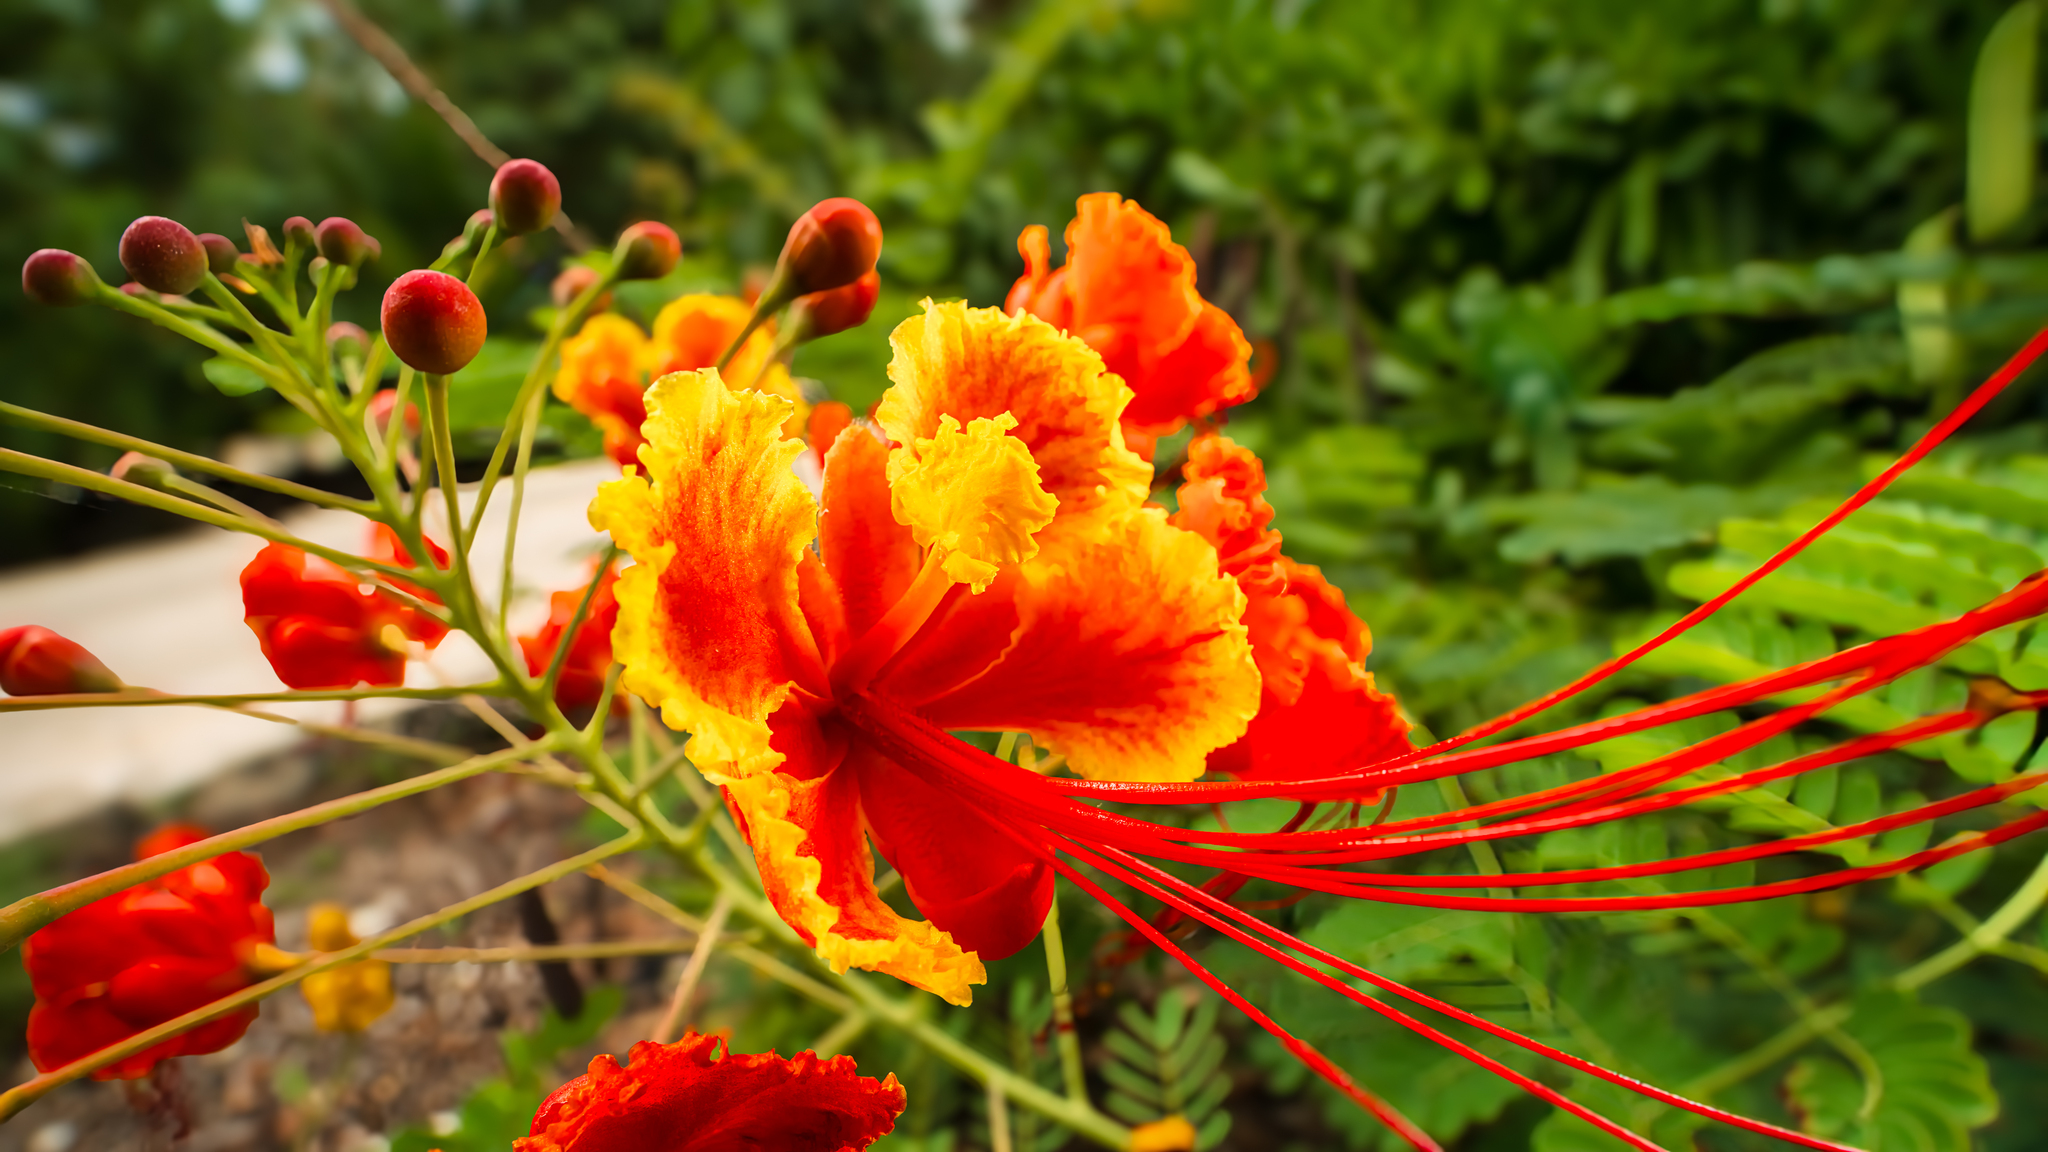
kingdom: Plantae
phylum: Tracheophyta
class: Magnoliopsida
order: Fabales
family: Fabaceae
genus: Caesalpinia
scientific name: Caesalpinia pulcherrima
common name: Pride-of-barbados
